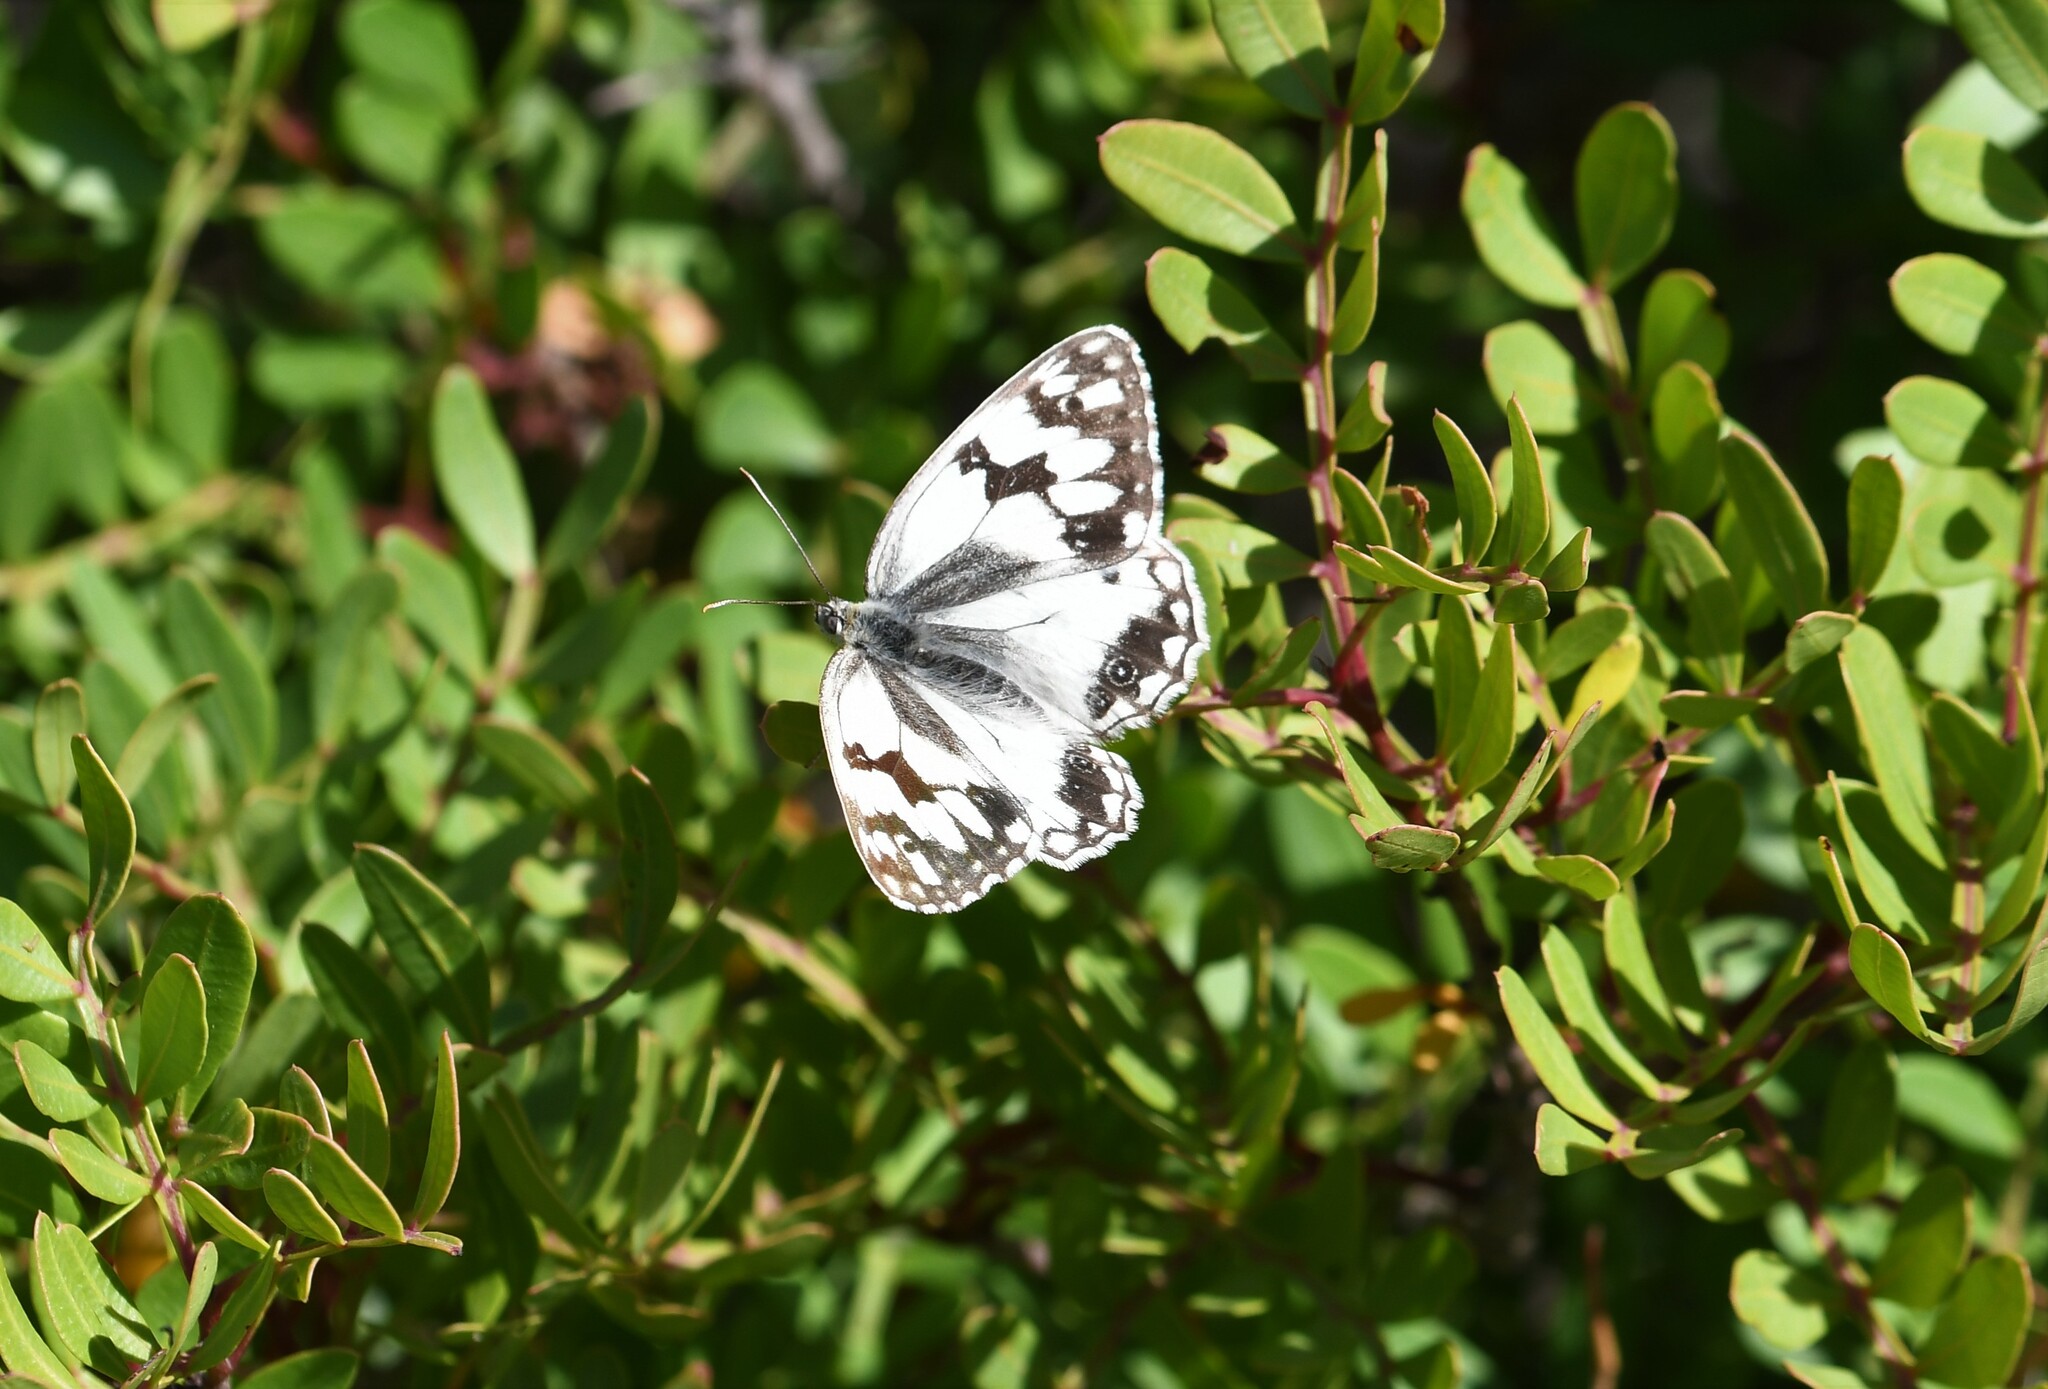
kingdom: Animalia
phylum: Arthropoda
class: Insecta
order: Lepidoptera
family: Nymphalidae
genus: Melanargia
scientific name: Melanargia lachesis
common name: Iberian marbled white
